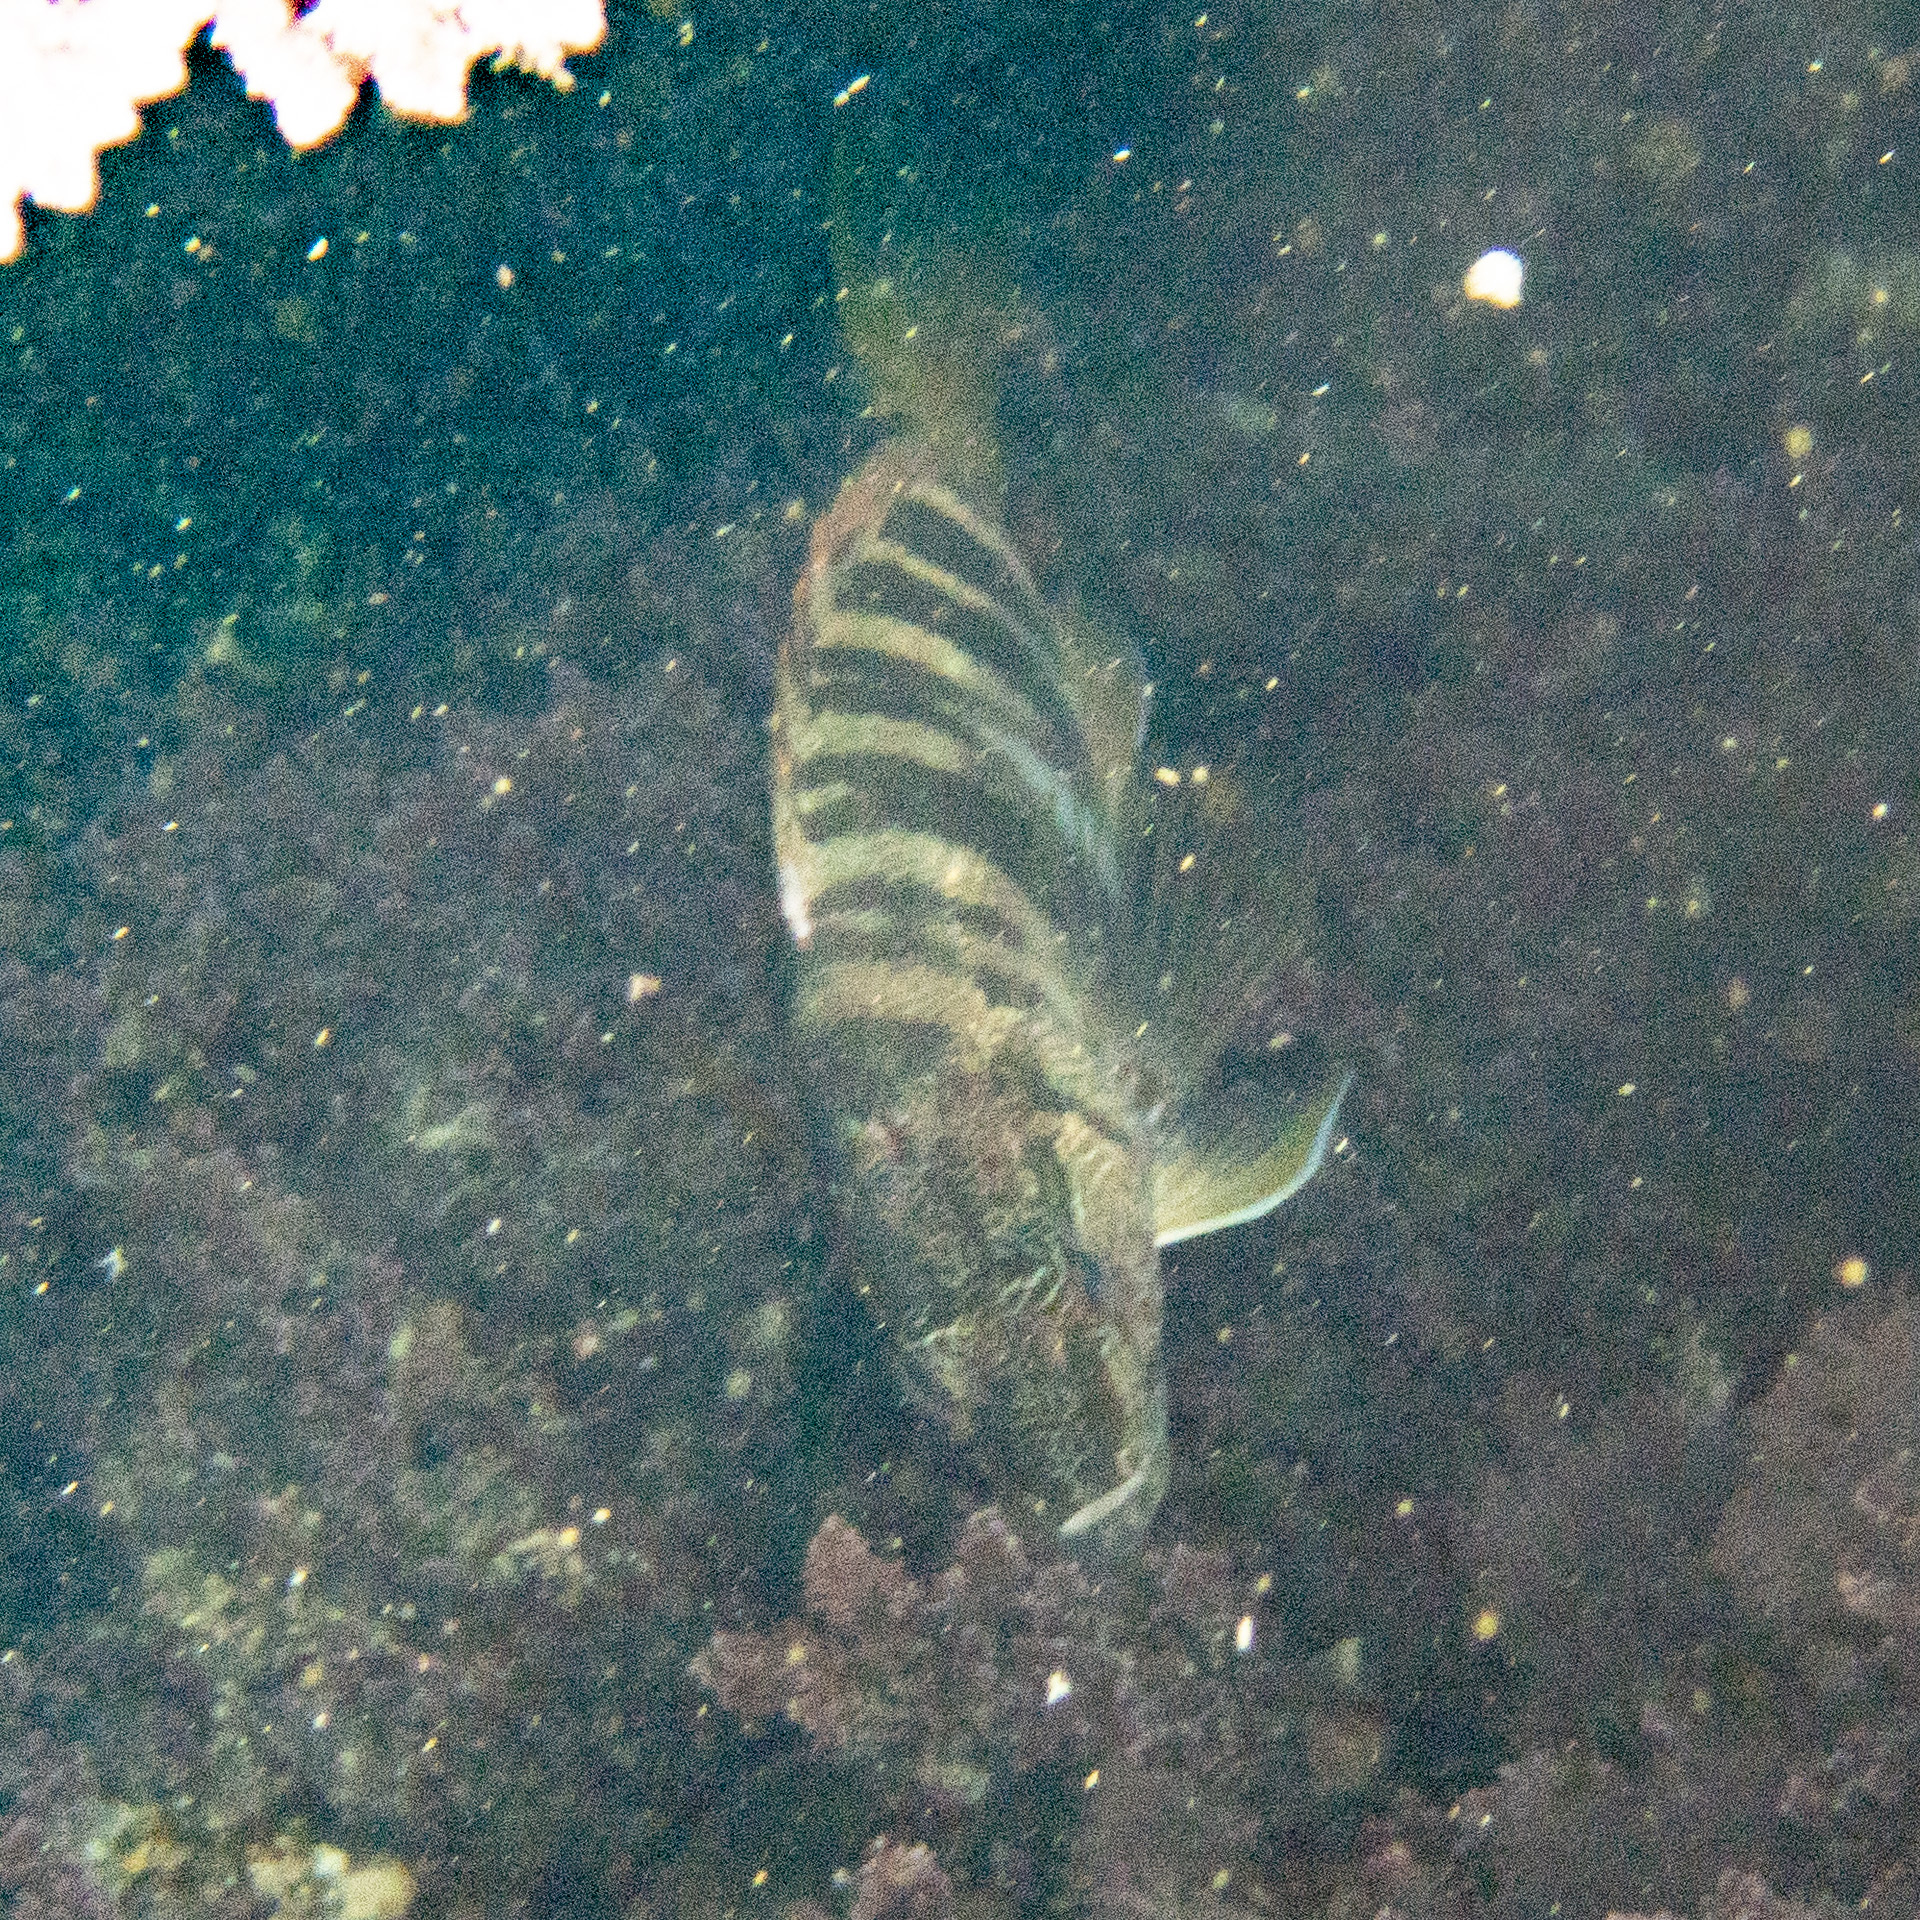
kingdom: Animalia
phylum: Chordata
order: Perciformes
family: Serranidae
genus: Serranus
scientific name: Serranus scriba
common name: Painted comber
